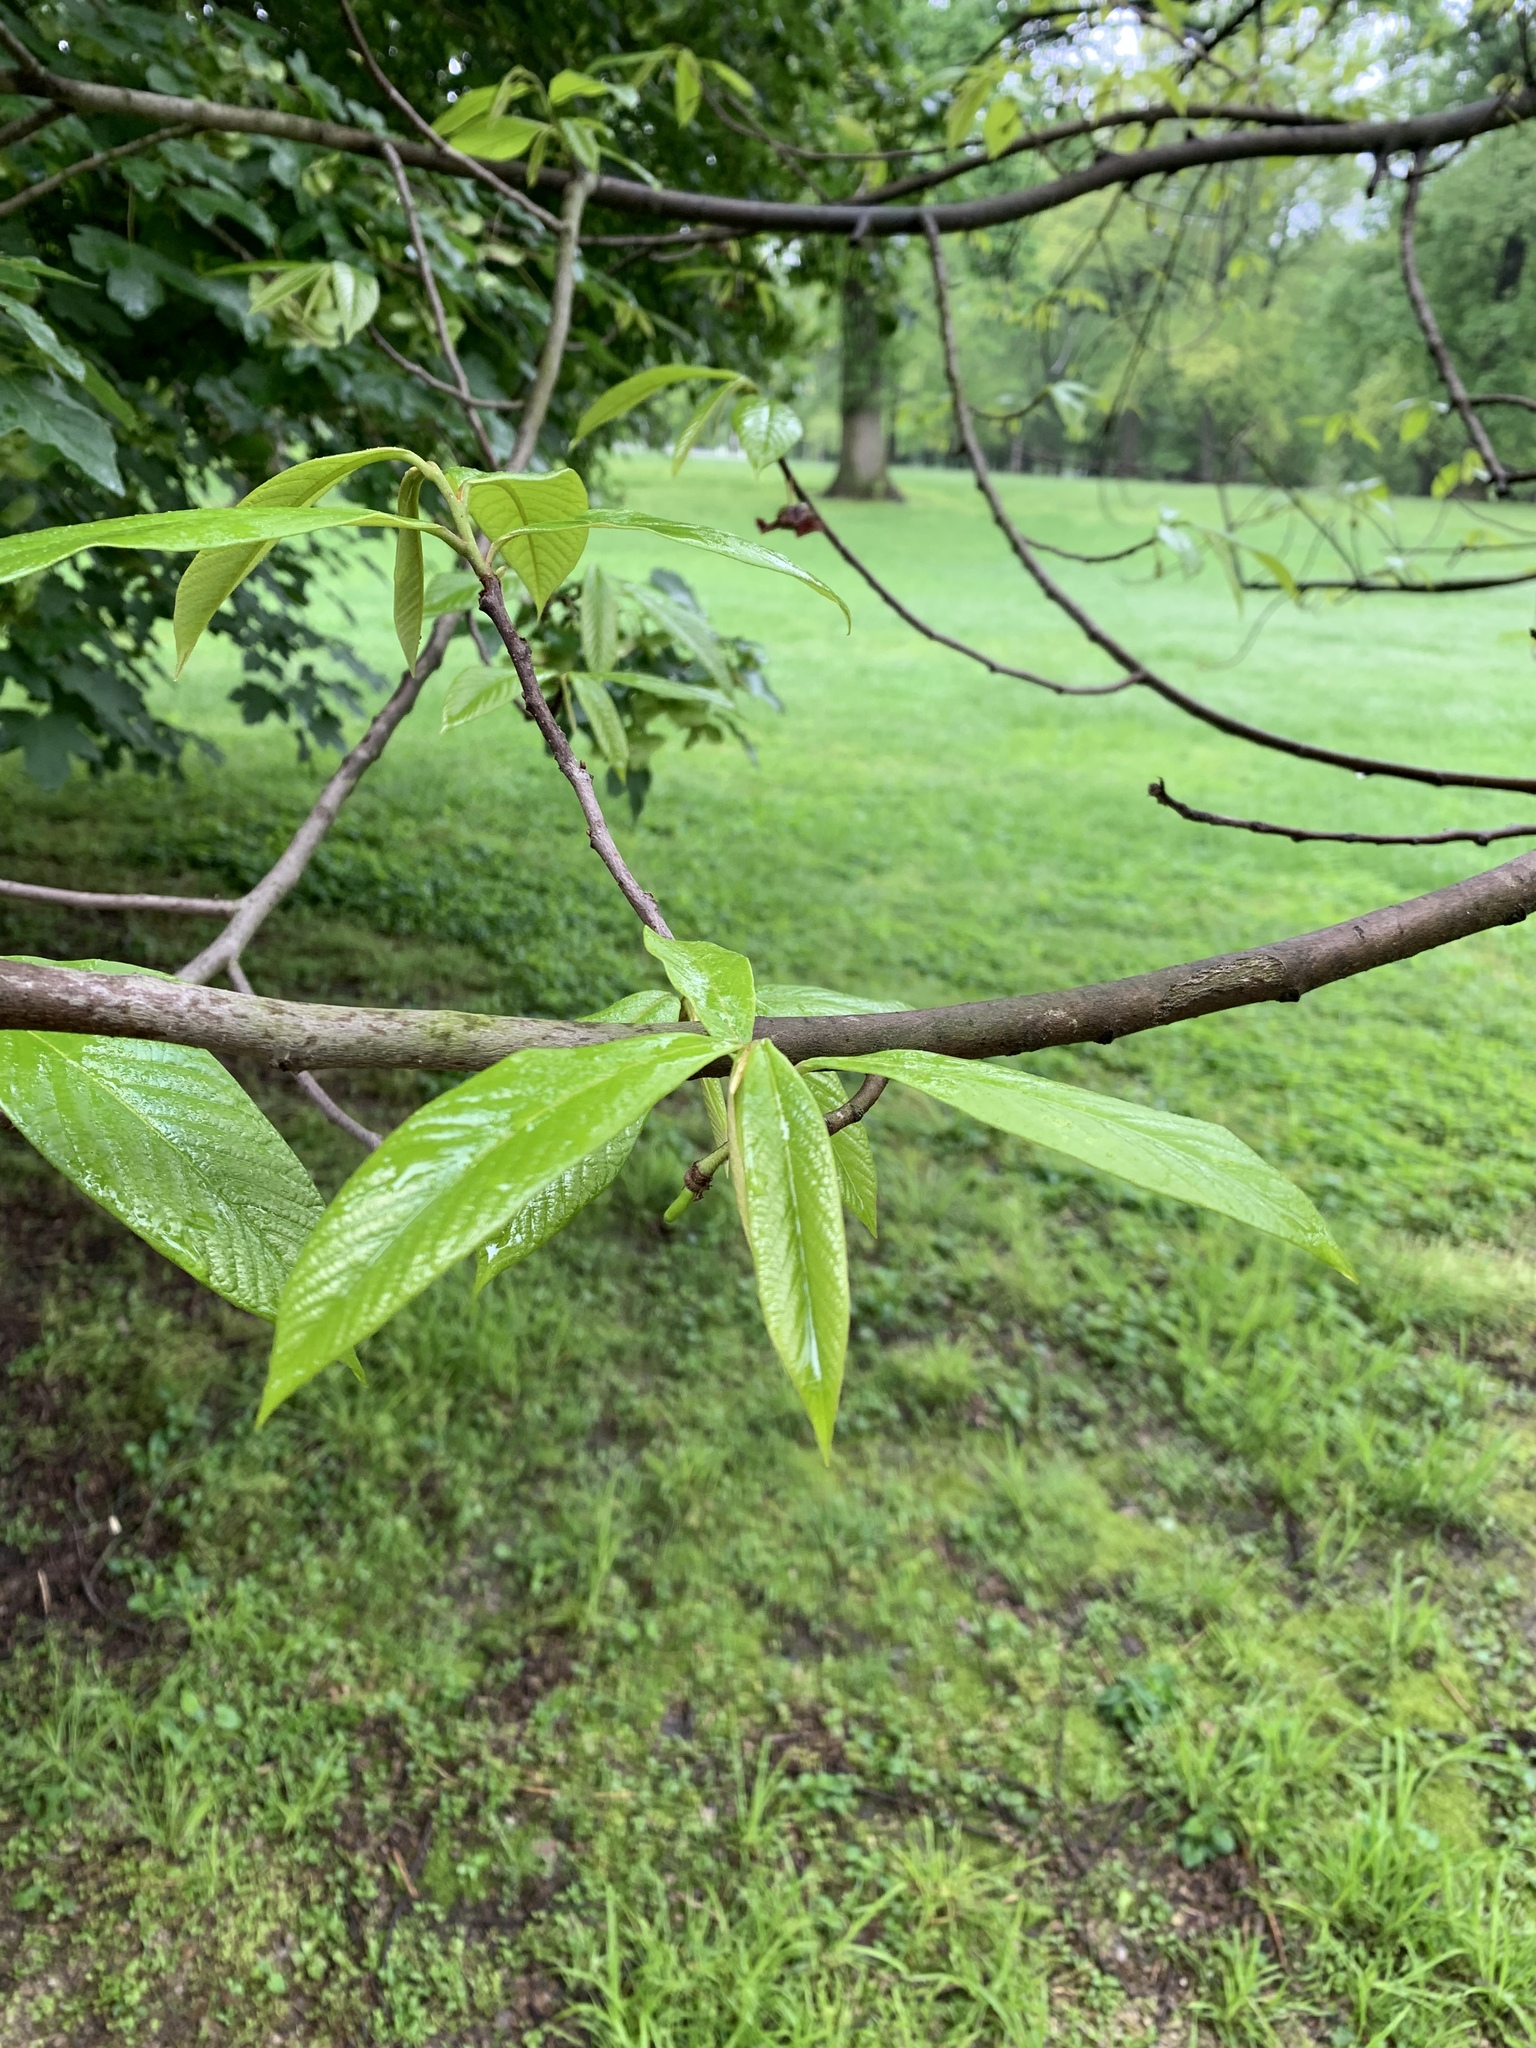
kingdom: Plantae
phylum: Tracheophyta
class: Magnoliopsida
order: Magnoliales
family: Annonaceae
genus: Asimina
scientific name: Asimina triloba
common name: Dog-banana
